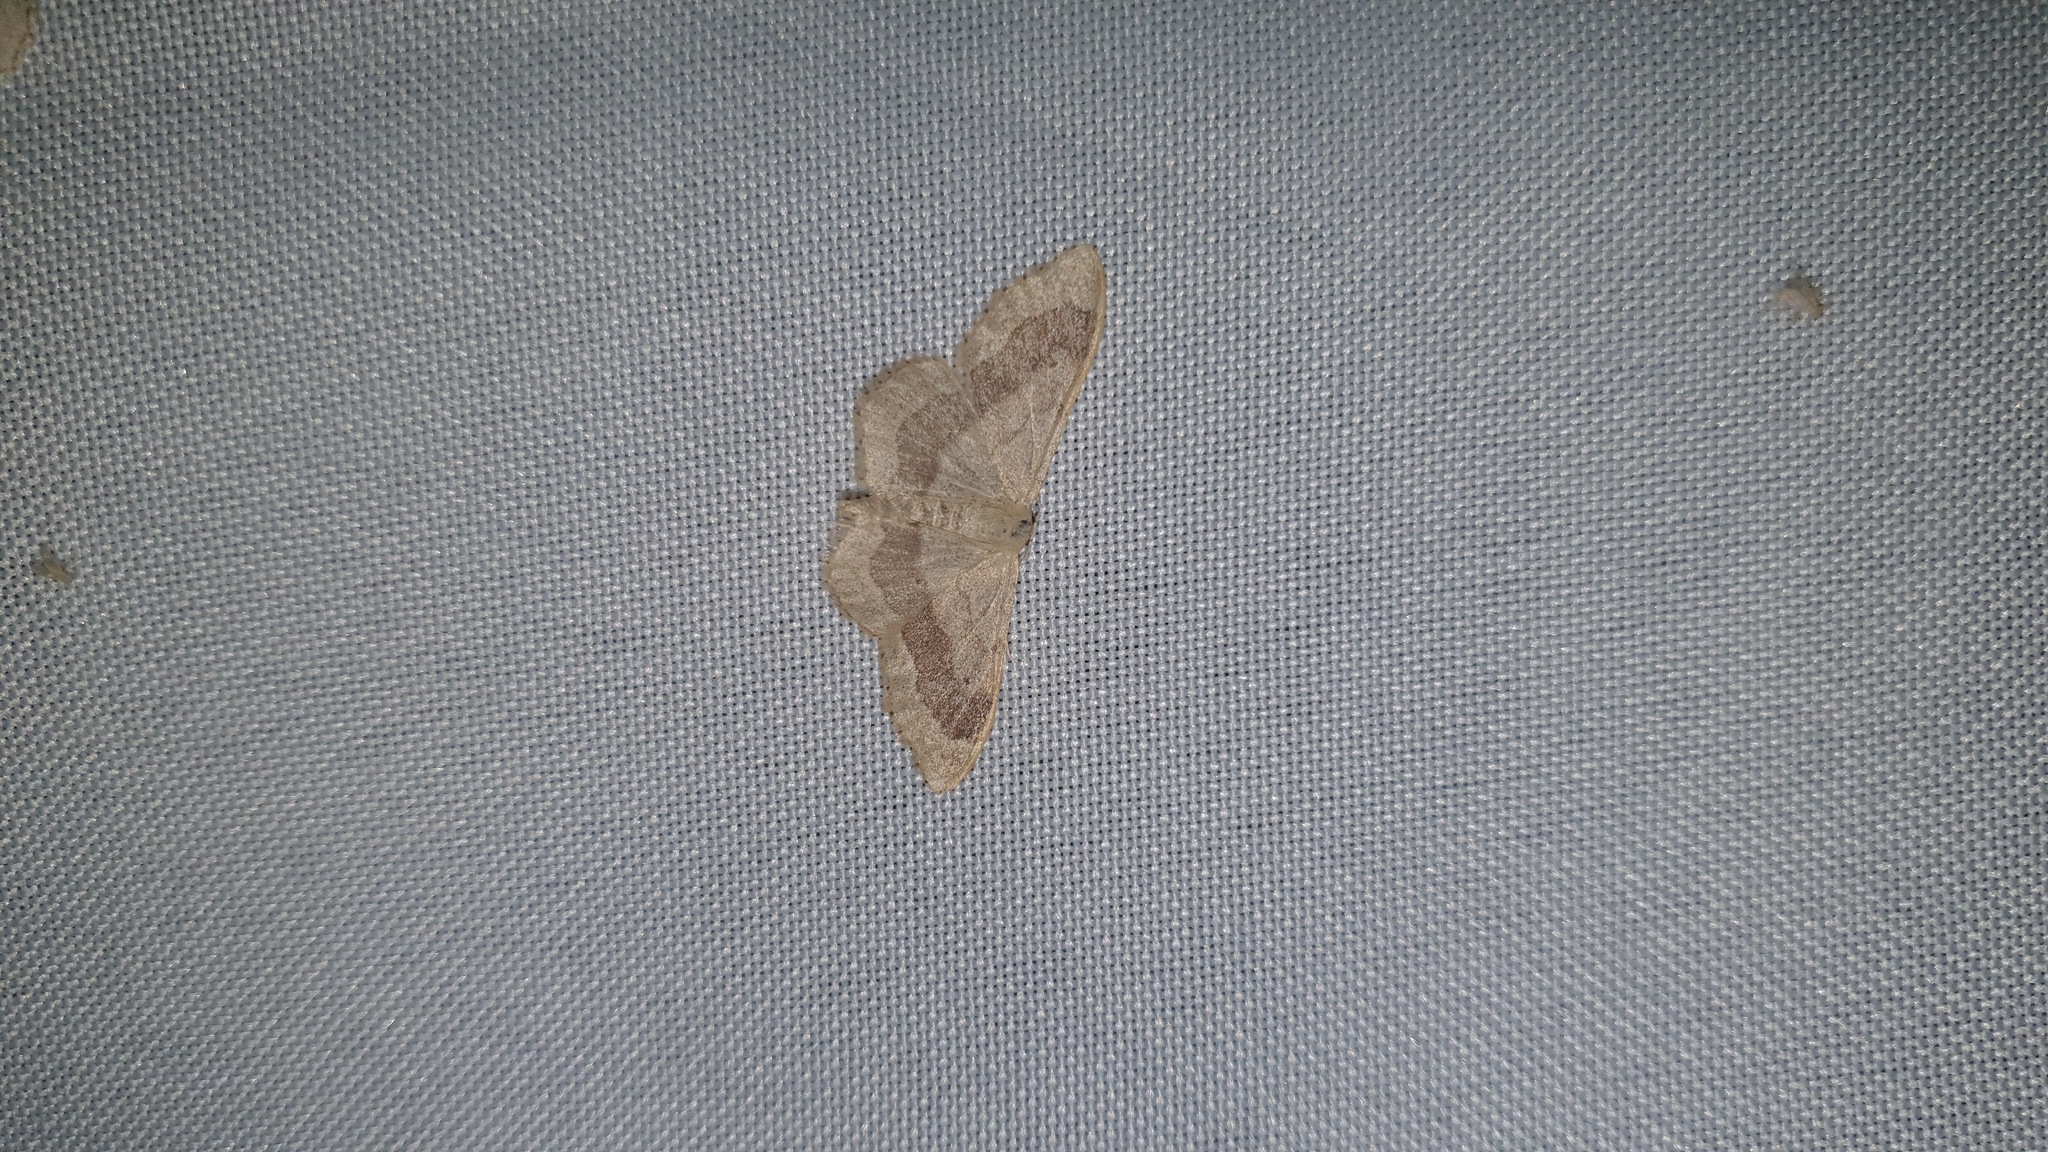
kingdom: Animalia
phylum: Arthropoda
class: Insecta
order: Lepidoptera
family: Geometridae
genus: Idaea
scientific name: Idaea aversata
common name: Riband wave
